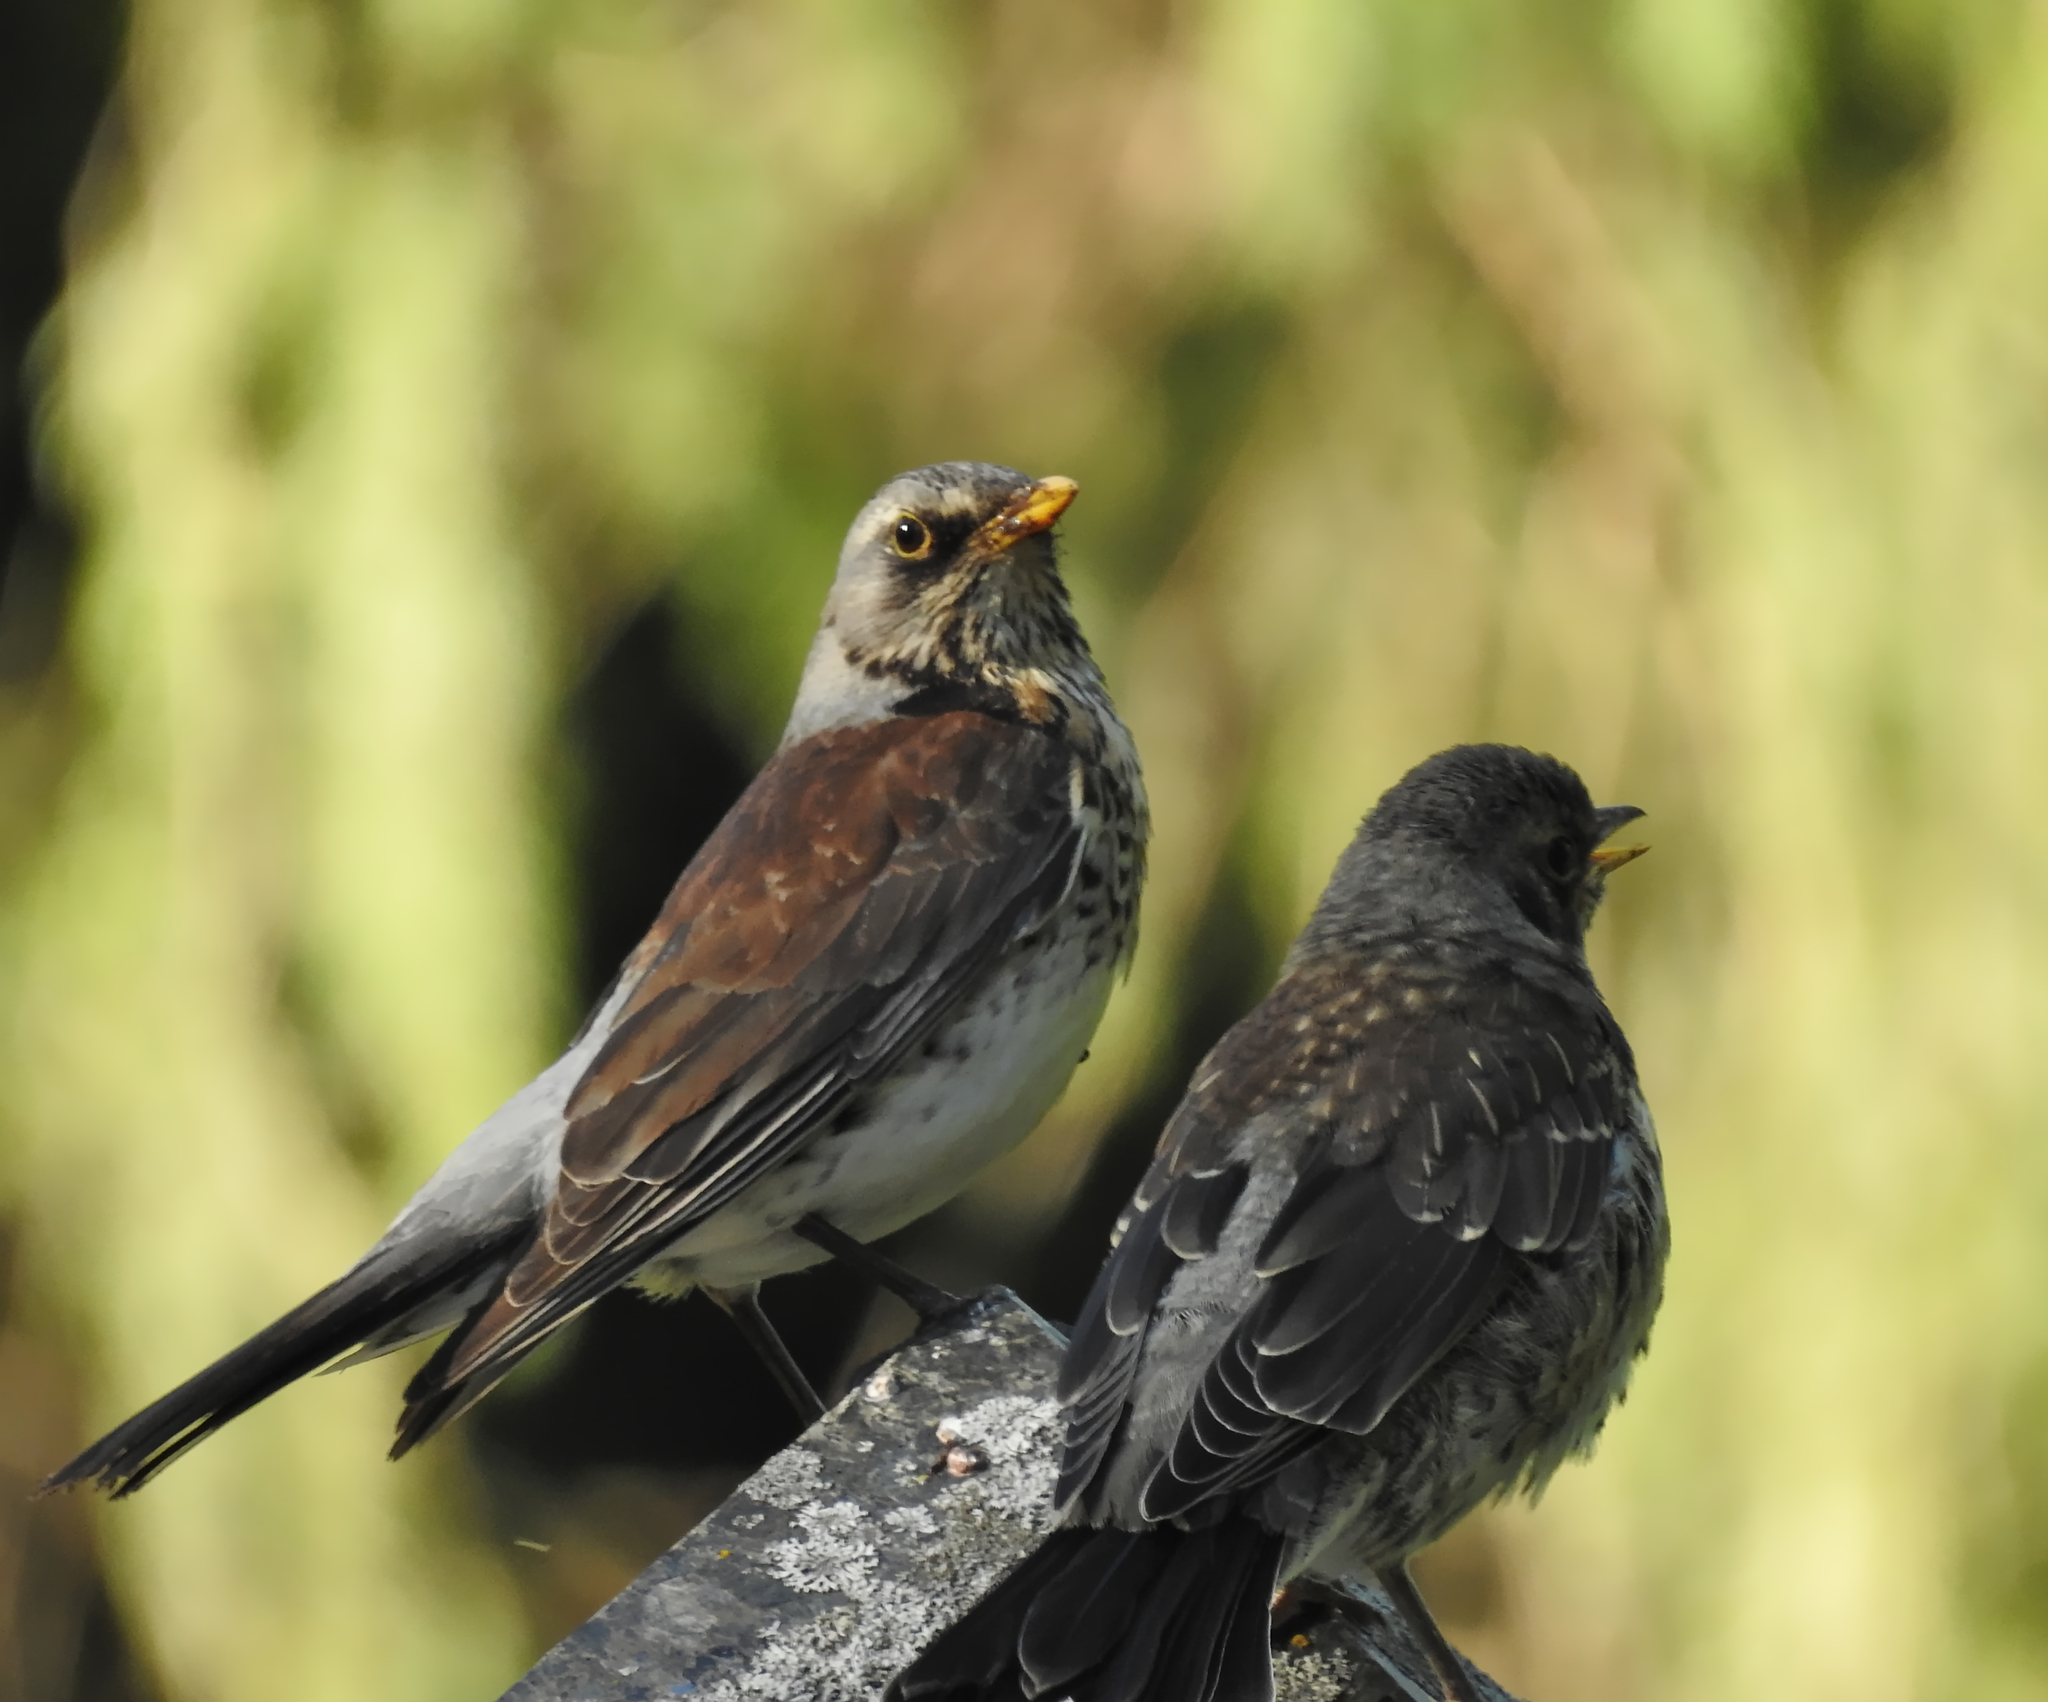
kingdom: Animalia
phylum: Chordata
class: Aves
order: Passeriformes
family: Turdidae
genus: Turdus
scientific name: Turdus pilaris
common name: Fieldfare
